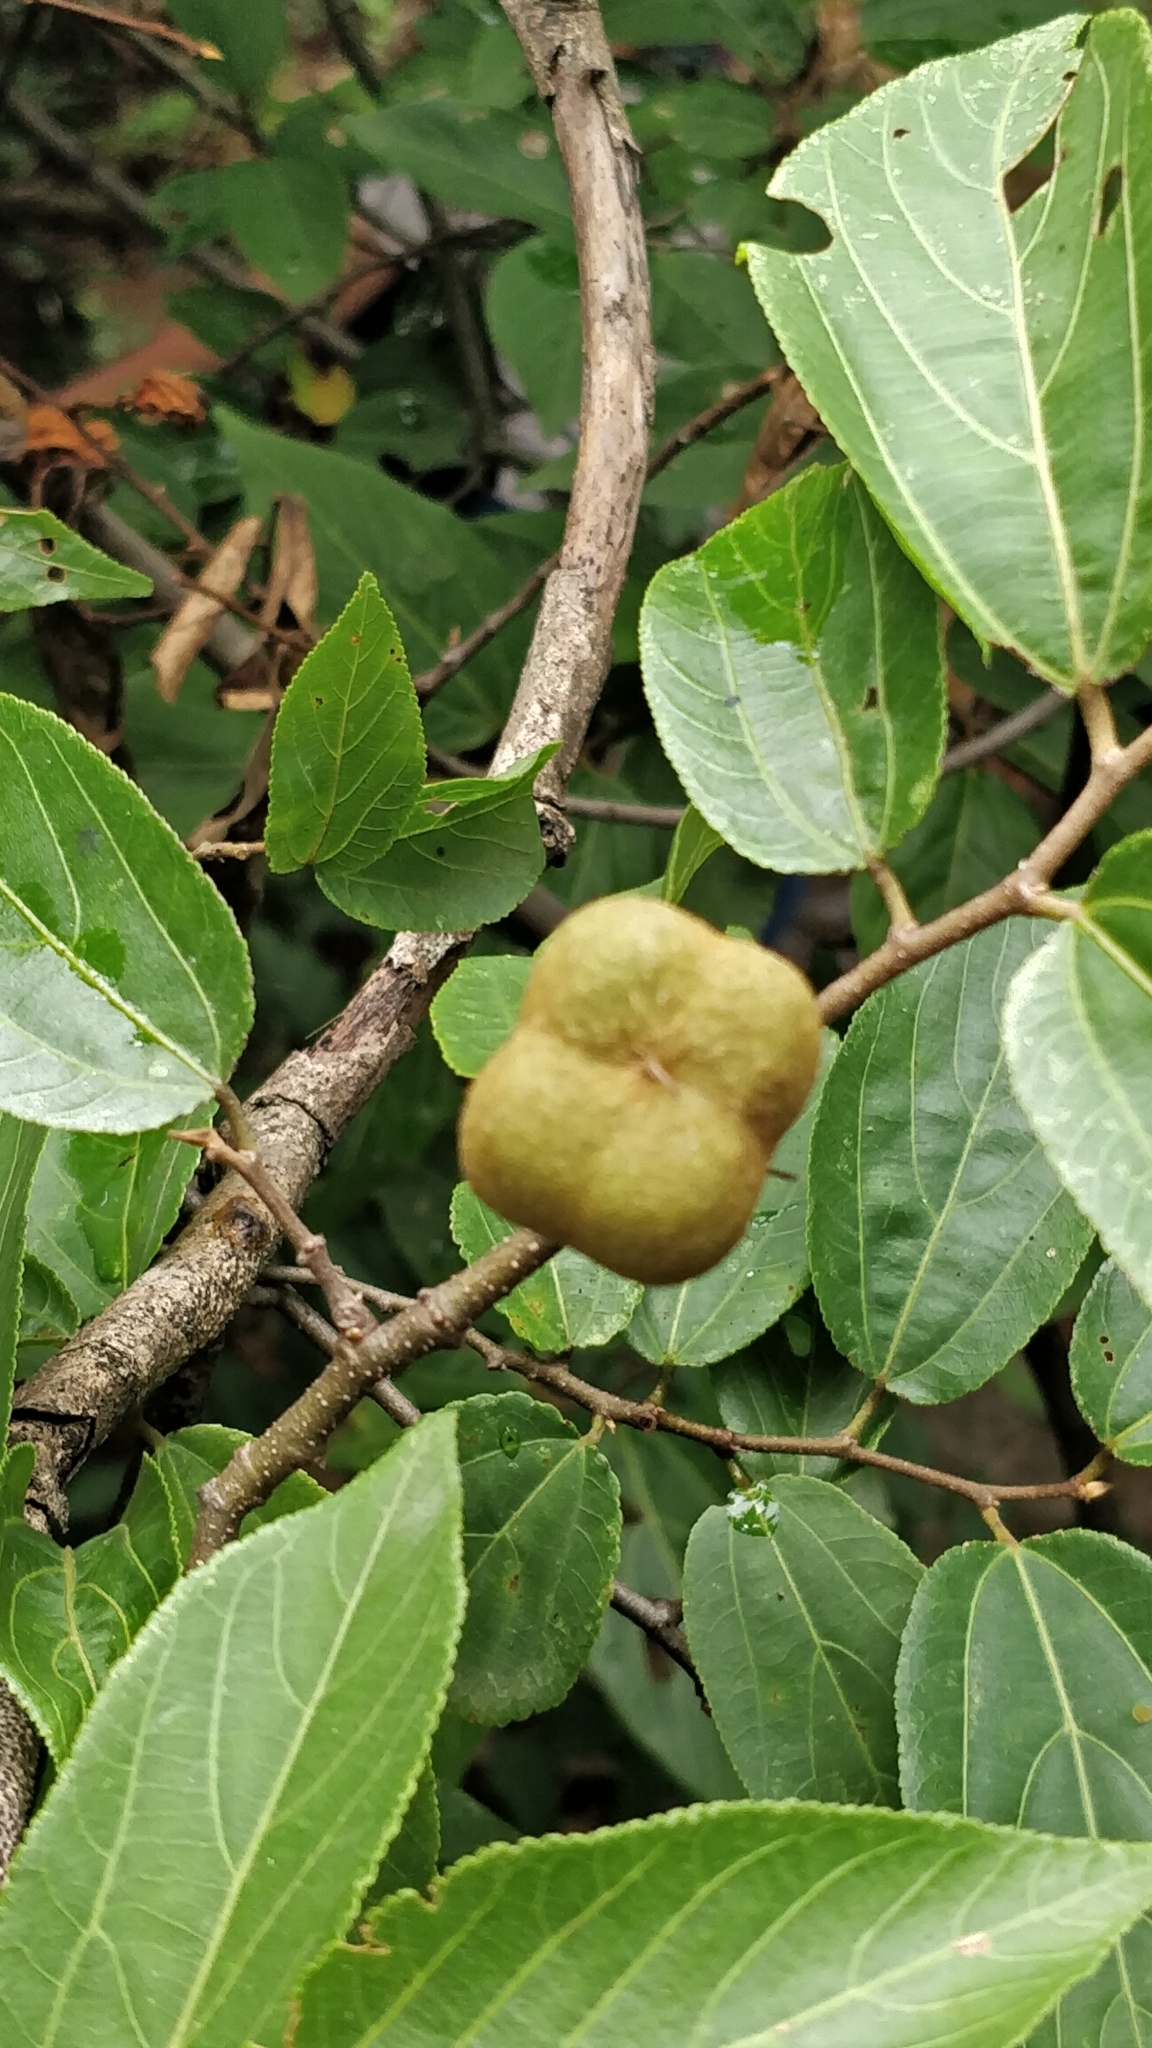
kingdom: Plantae
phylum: Tracheophyta
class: Magnoliopsida
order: Malvales
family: Malvaceae
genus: Grewia
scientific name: Grewia bracteata
